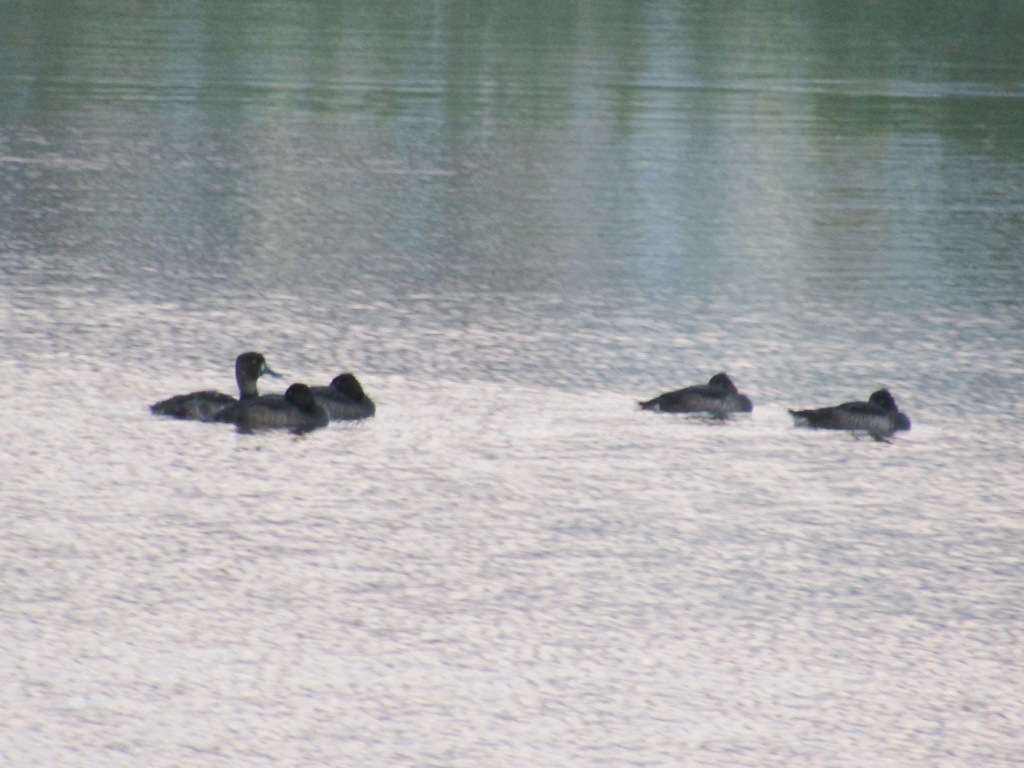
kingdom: Animalia
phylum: Chordata
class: Aves
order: Anseriformes
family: Anatidae
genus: Aythya
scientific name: Aythya fuligula
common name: Tufted duck
